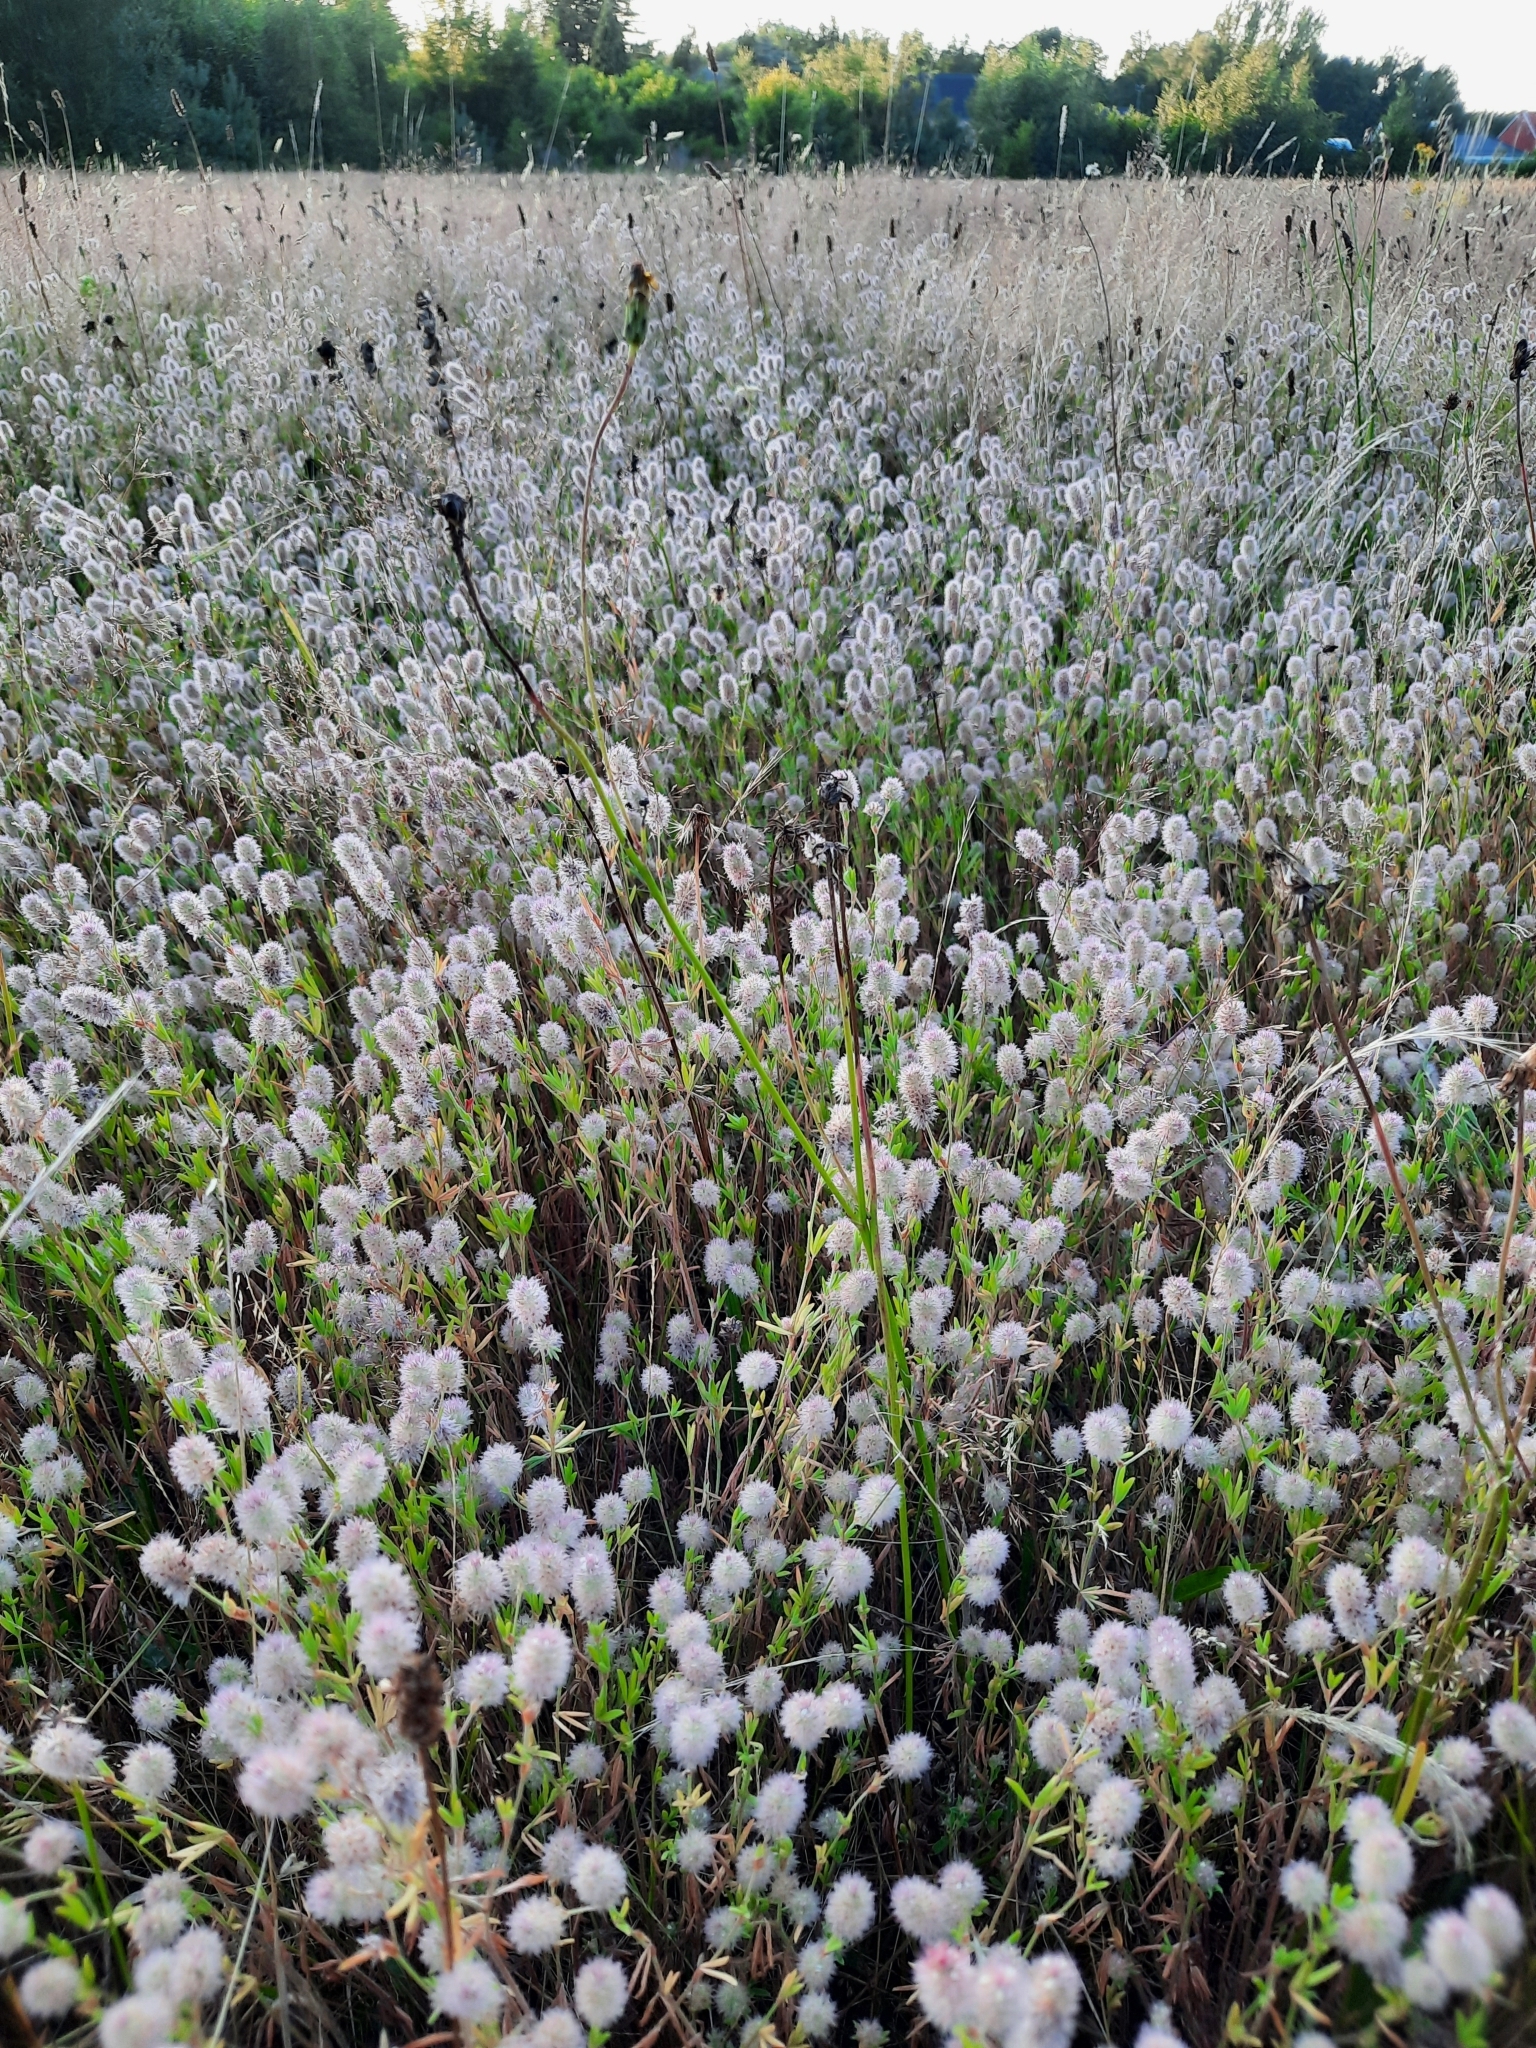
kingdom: Plantae
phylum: Tracheophyta
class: Magnoliopsida
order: Fabales
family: Fabaceae
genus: Trifolium
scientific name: Trifolium arvense
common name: Hare's-foot clover
